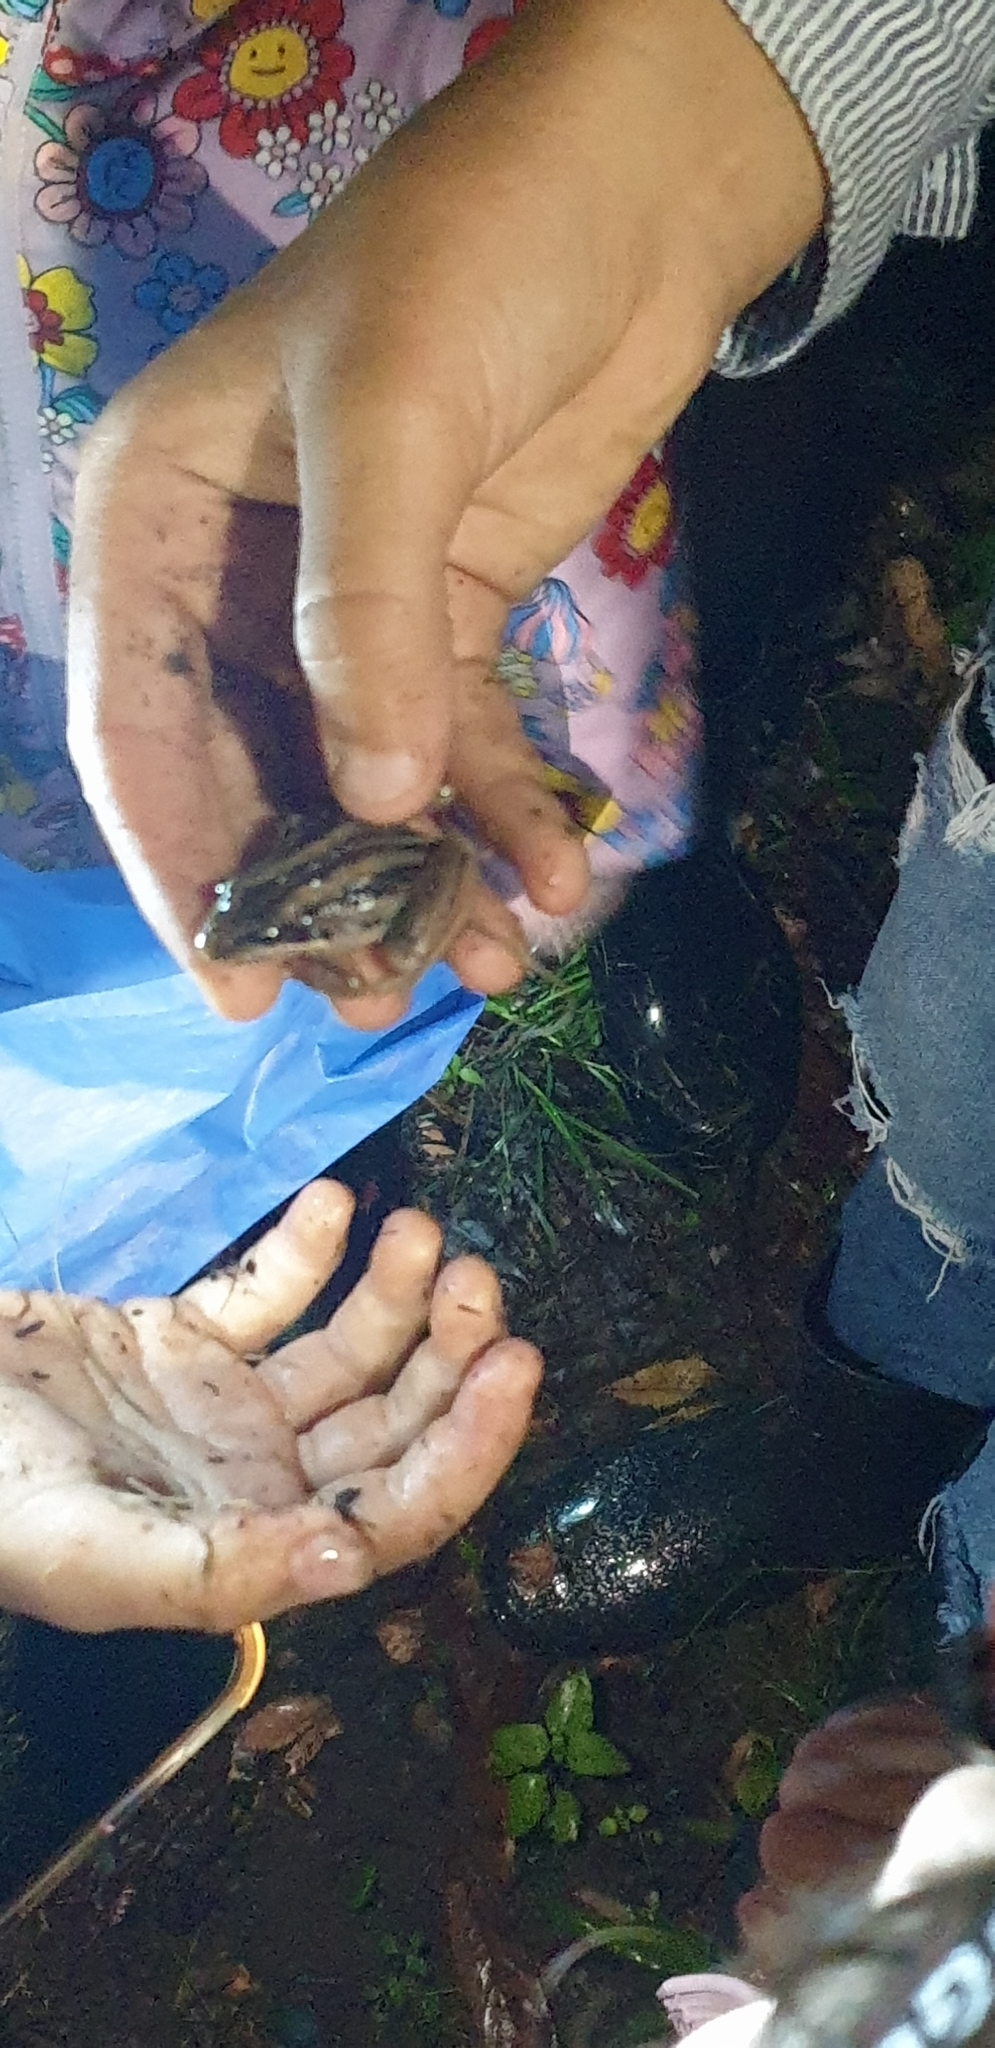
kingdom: Animalia
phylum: Chordata
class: Amphibia
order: Anura
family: Limnodynastidae
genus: Limnodynastes
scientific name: Limnodynastes peronii
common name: Brown frog
